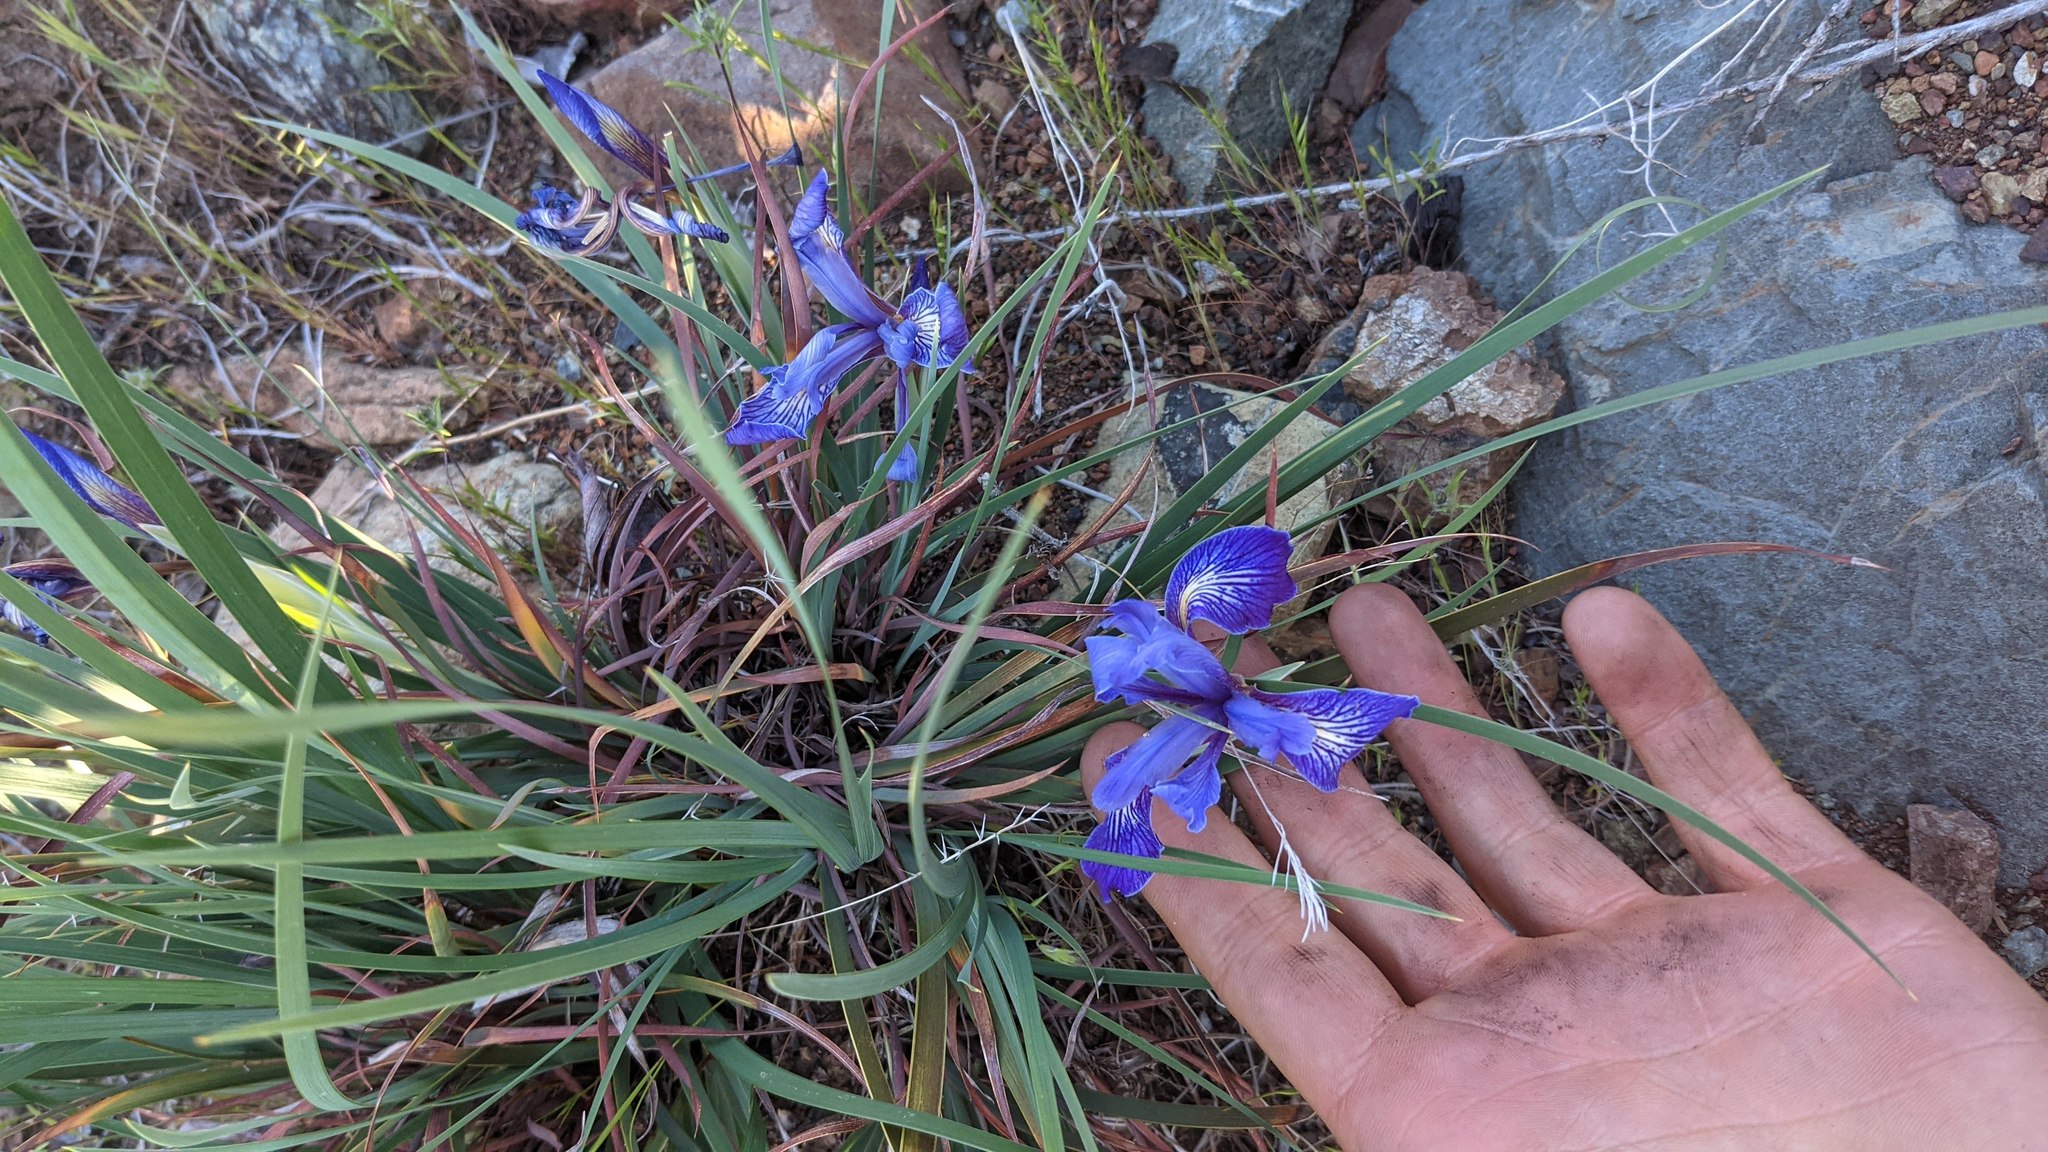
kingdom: Plantae
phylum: Tracheophyta
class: Liliopsida
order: Asparagales
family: Iridaceae
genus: Iris
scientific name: Iris macrosiphon
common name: Ground iris
